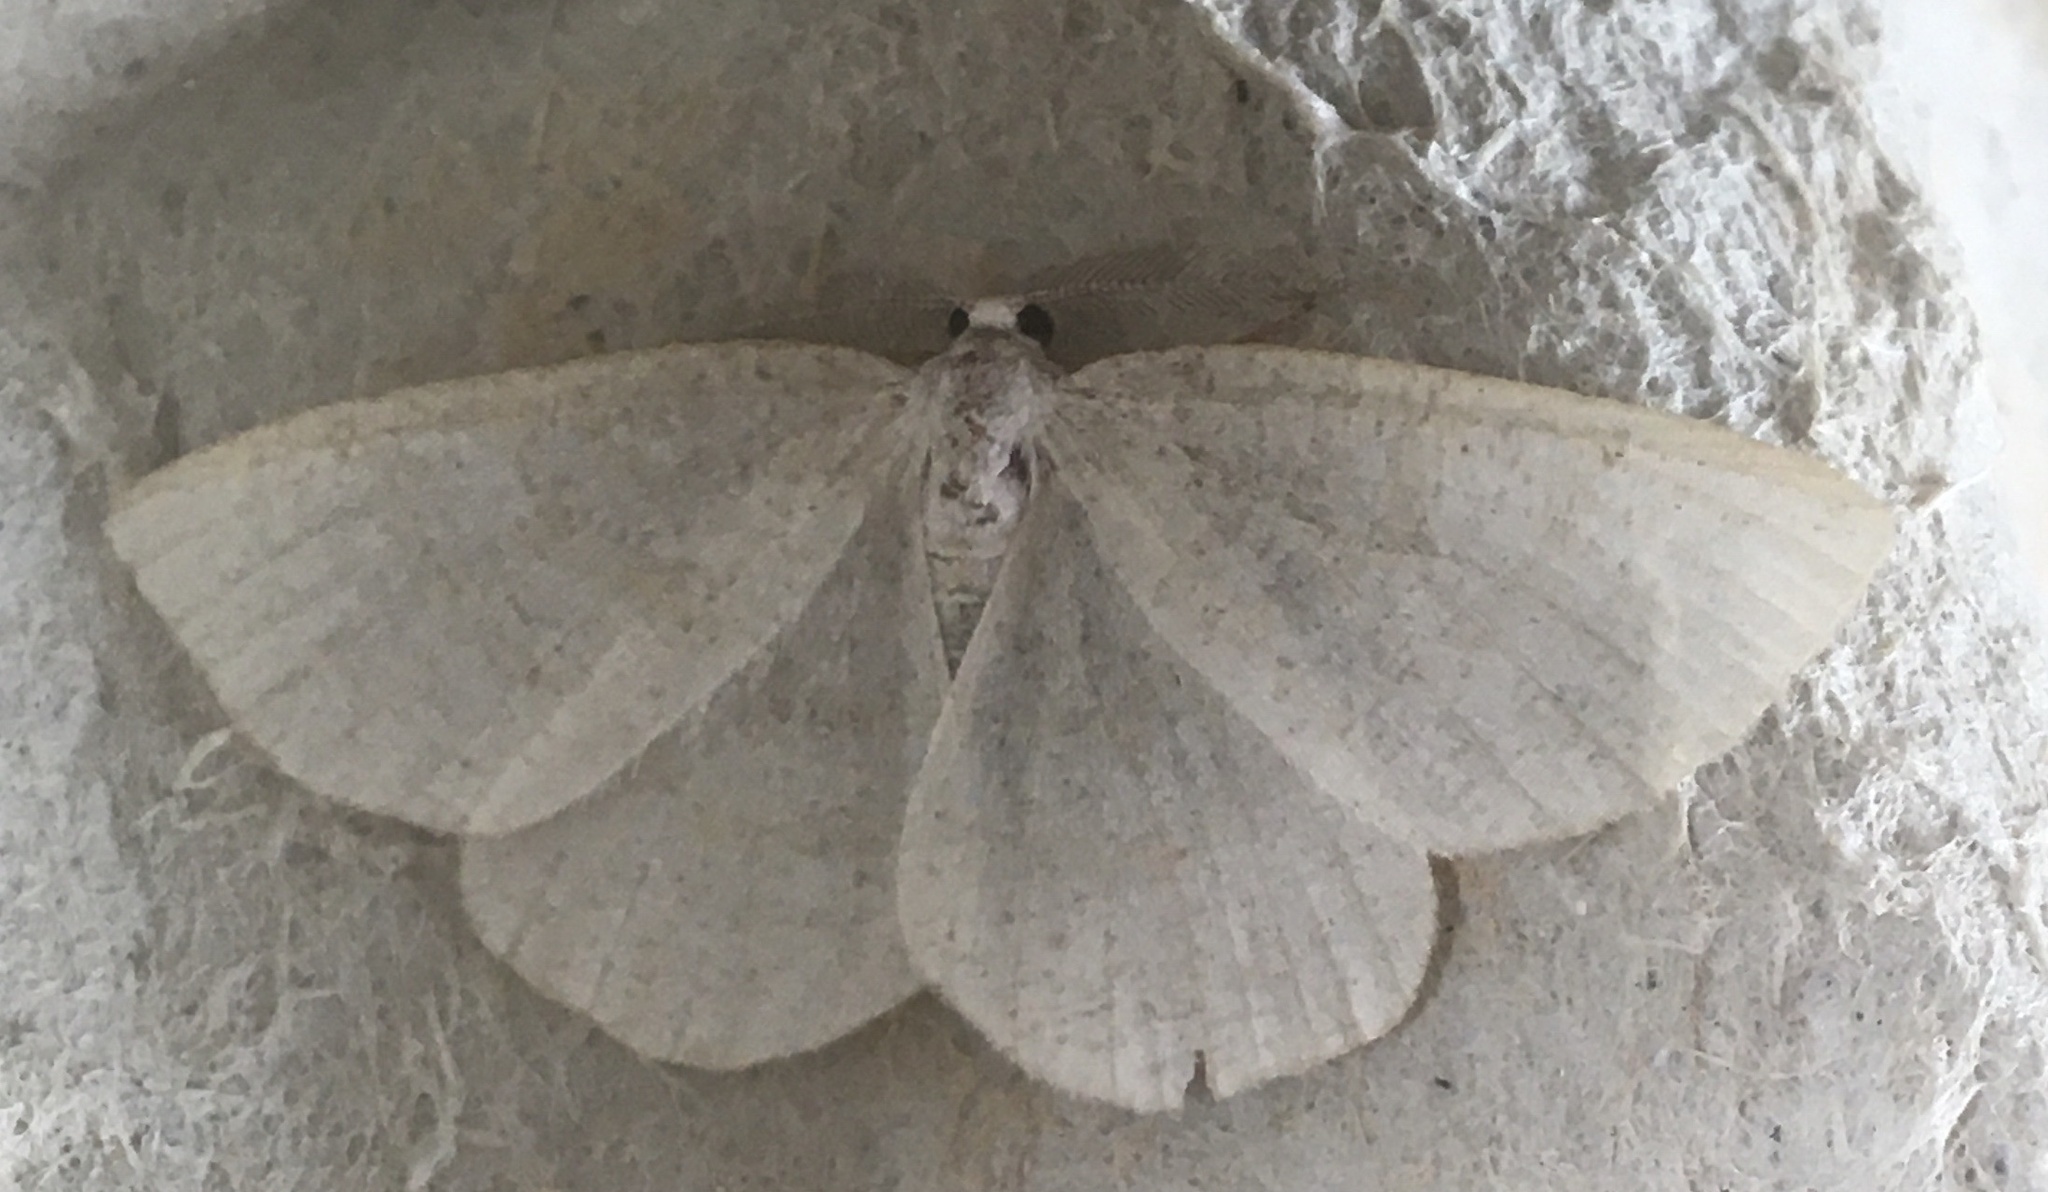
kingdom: Animalia
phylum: Arthropoda
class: Insecta
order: Lepidoptera
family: Geometridae
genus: Cabera
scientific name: Cabera exanthemata
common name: Common wave
